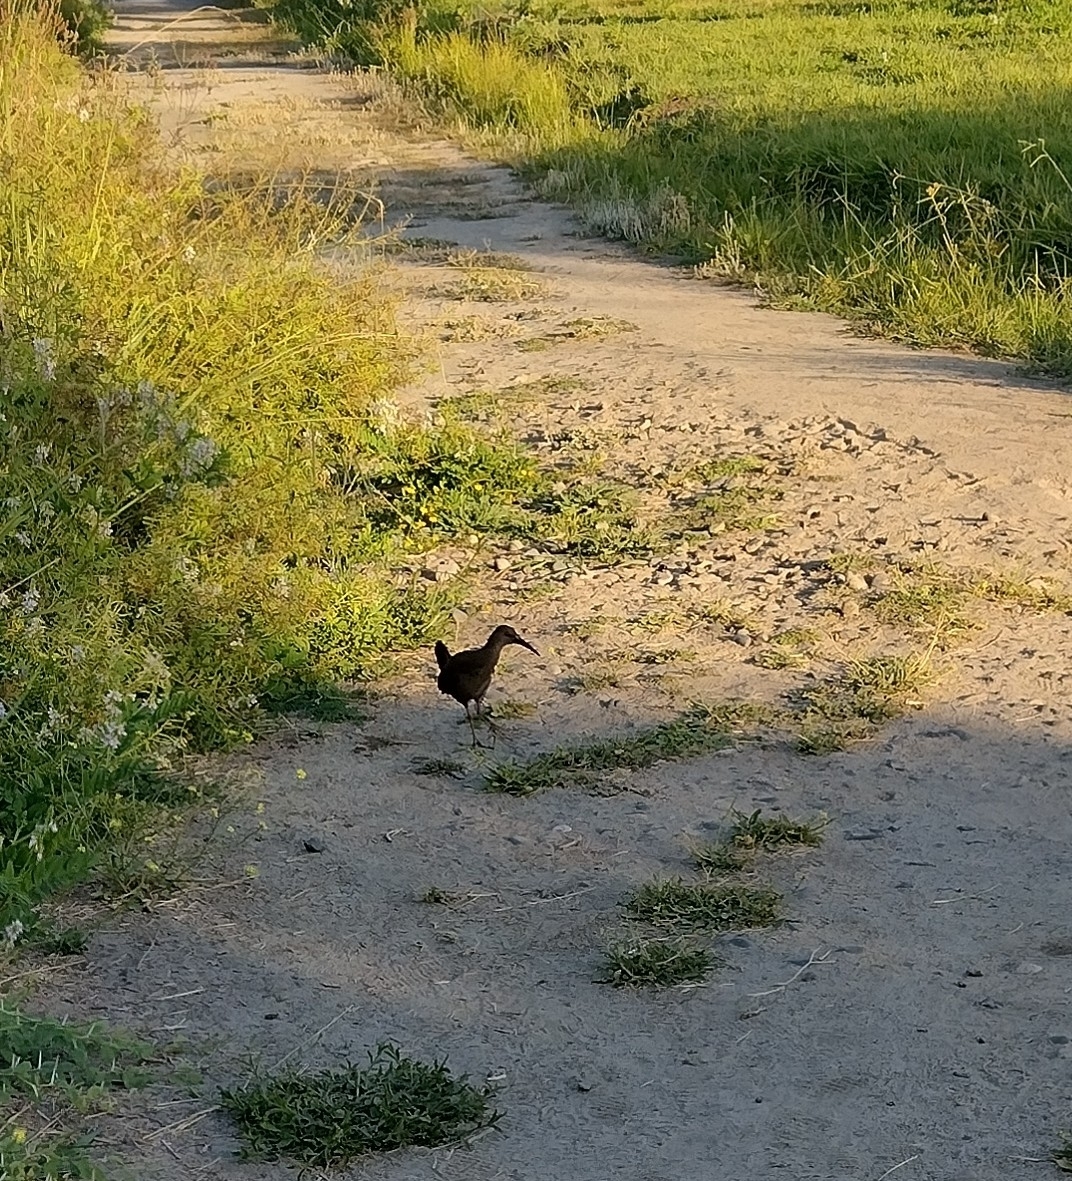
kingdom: Animalia
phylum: Chordata
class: Aves
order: Gruiformes
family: Rallidae
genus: Pardirallus
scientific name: Pardirallus sanguinolentus
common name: Plumbeous rail
